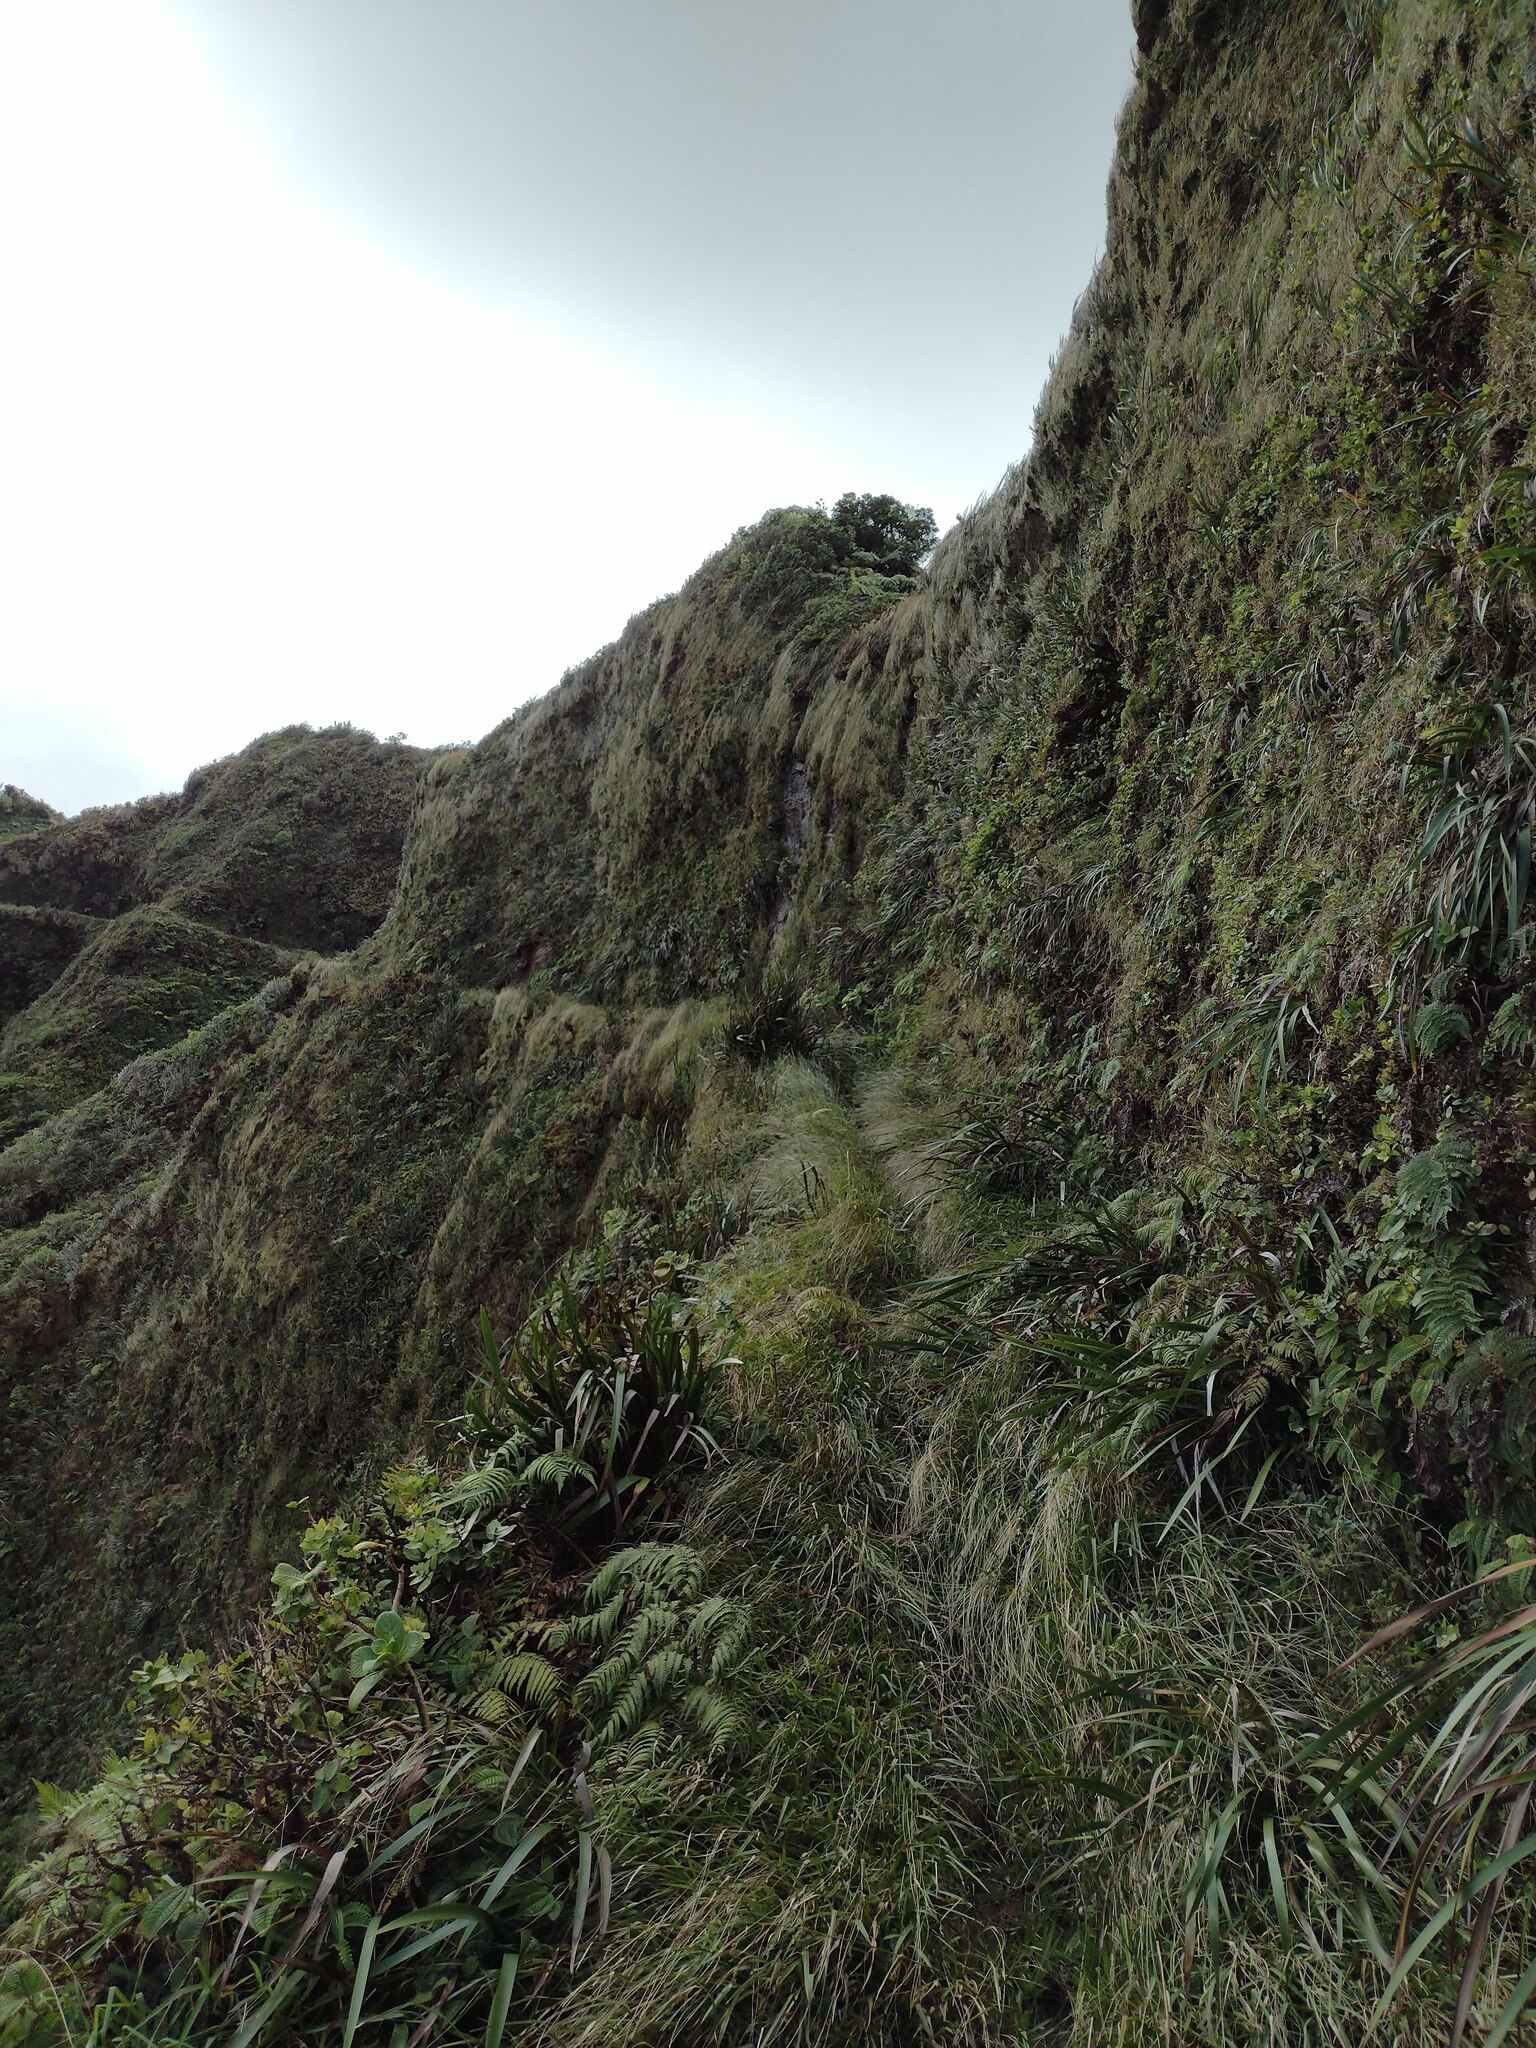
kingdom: Plantae
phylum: Tracheophyta
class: Liliopsida
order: Poales
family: Cyperaceae
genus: Machaerina
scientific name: Machaerina angustifolia
